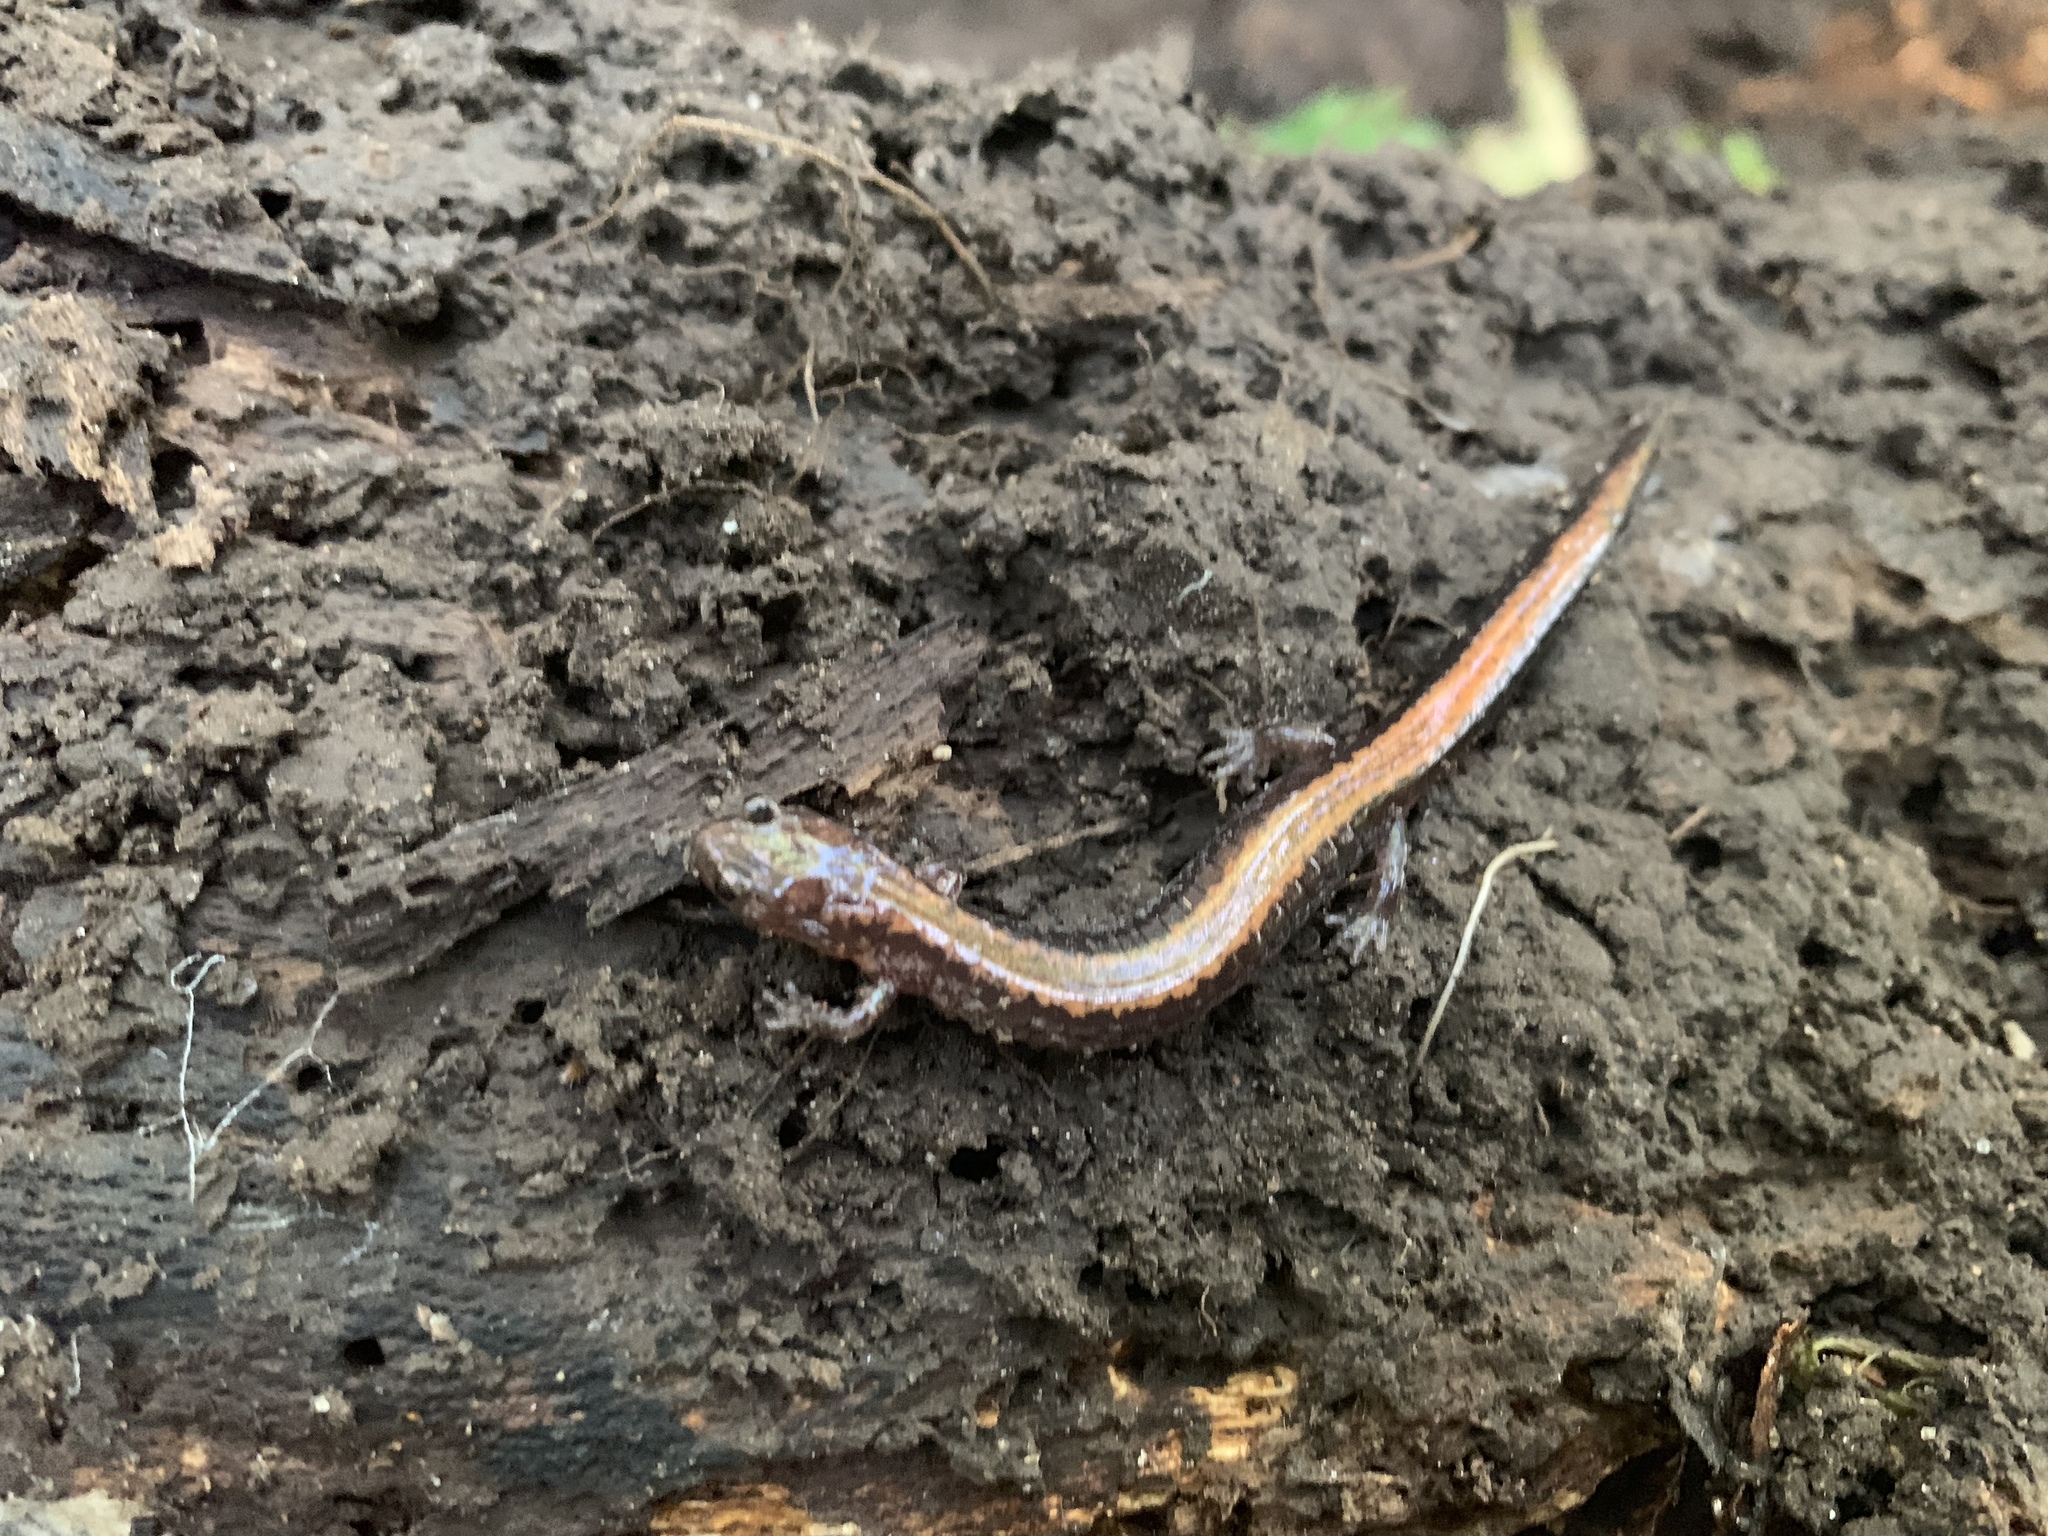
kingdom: Animalia
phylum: Chordata
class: Amphibia
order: Caudata
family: Plethodontidae
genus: Plethodon
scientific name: Plethodon cinereus
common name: Redback salamander
